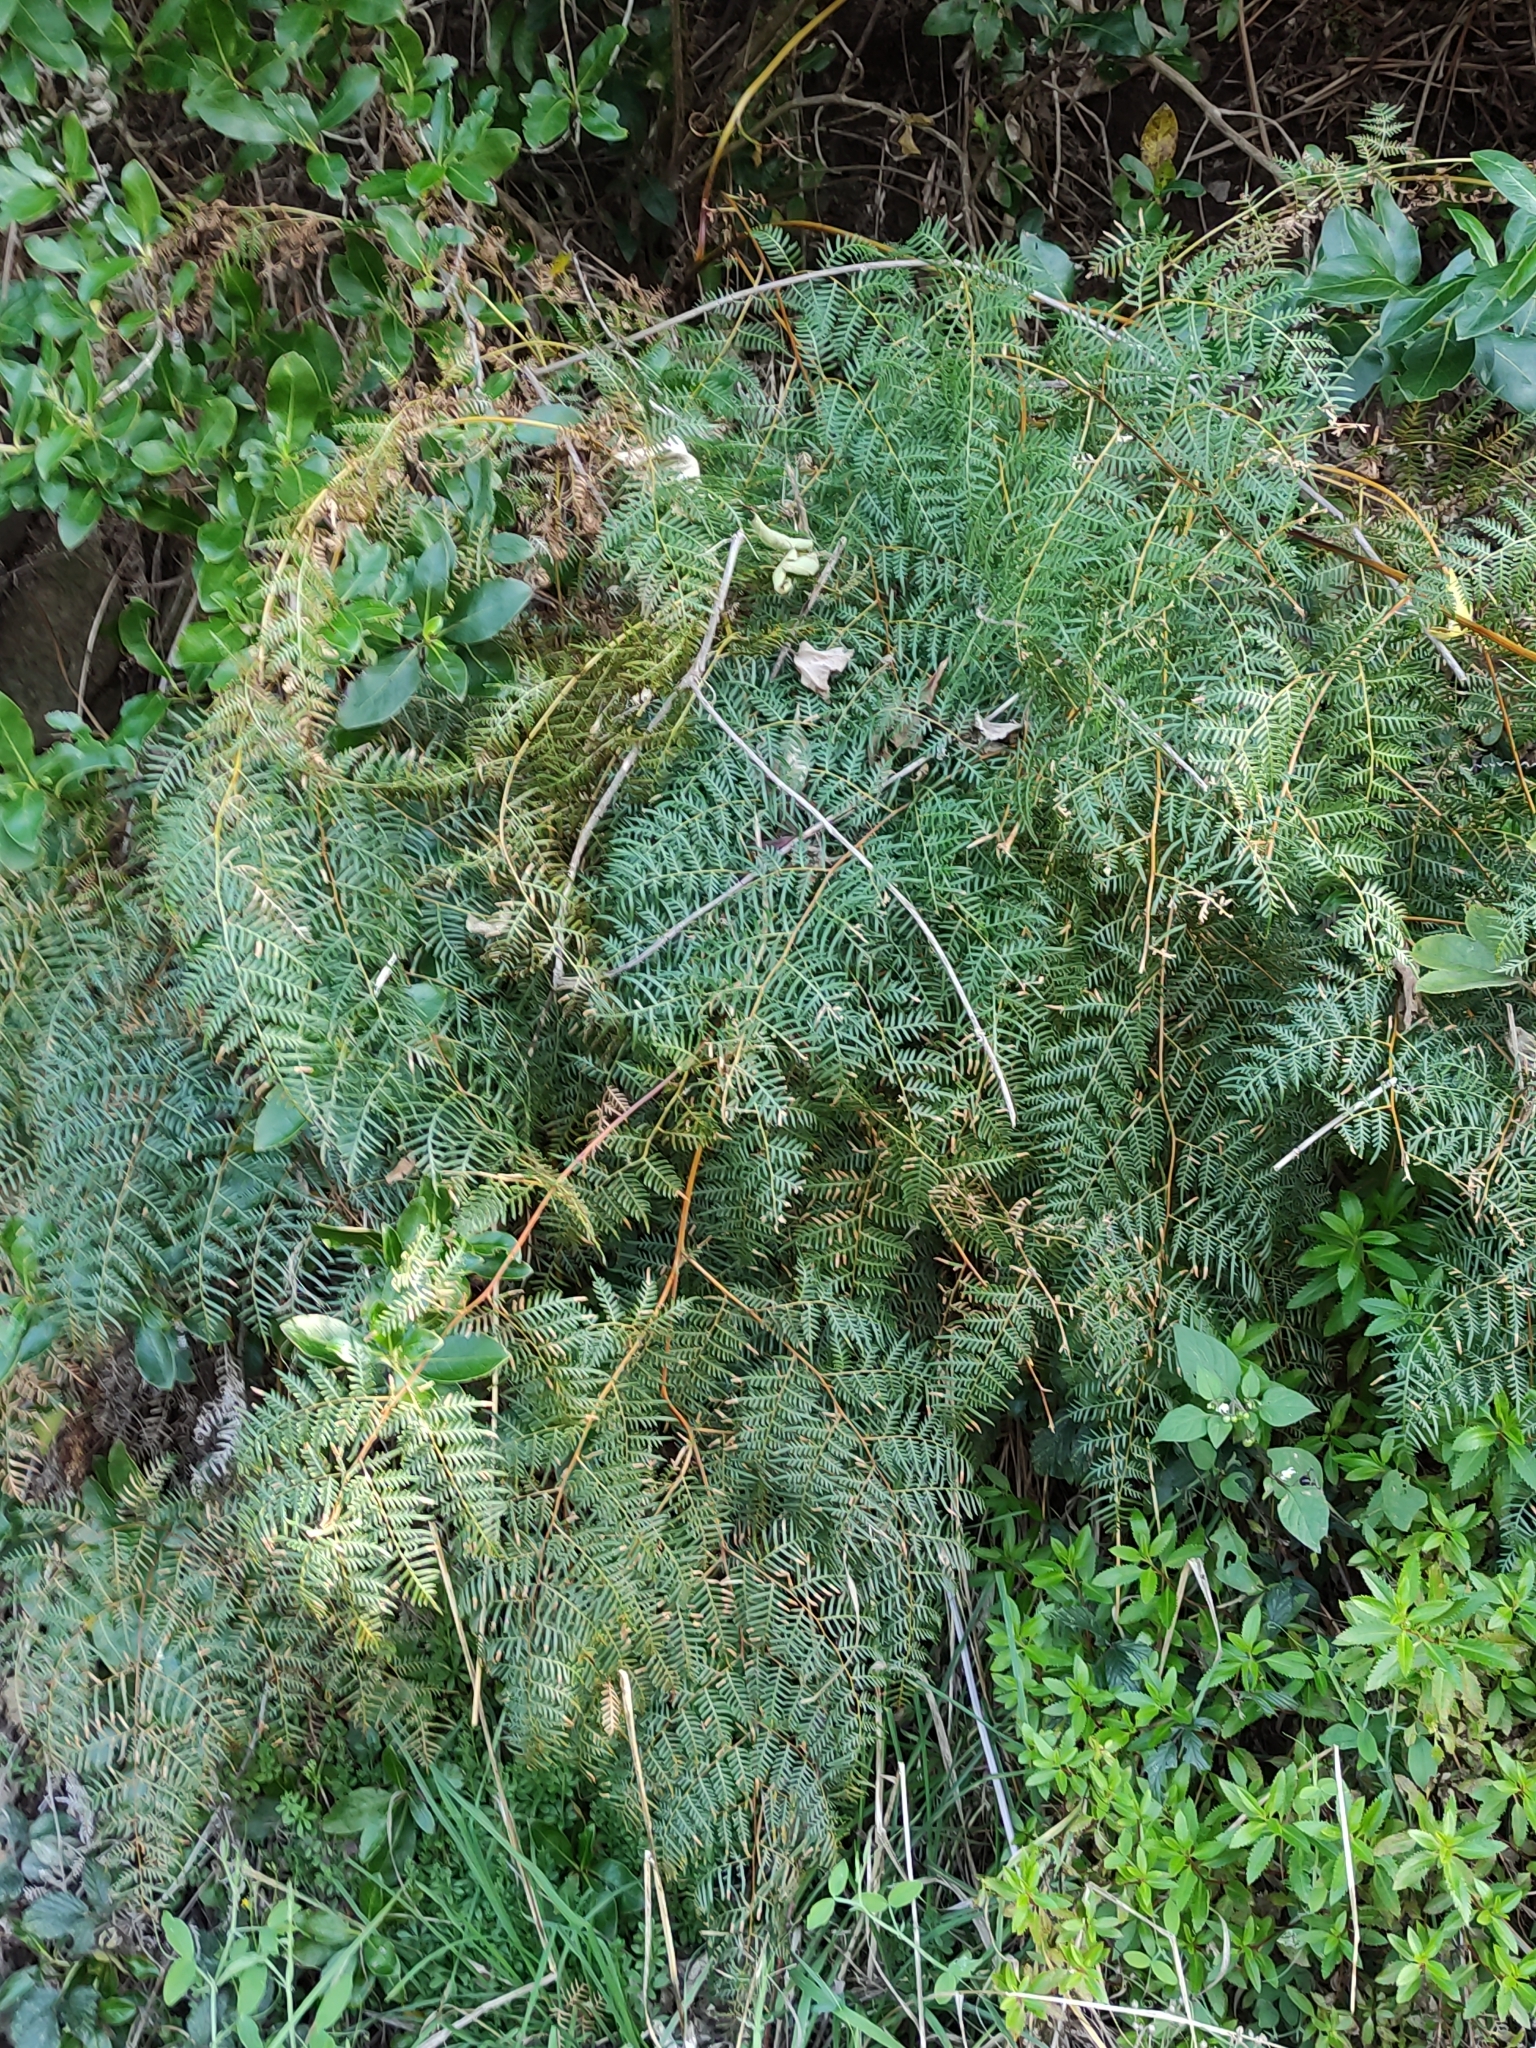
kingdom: Plantae
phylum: Tracheophyta
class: Polypodiopsida
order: Polypodiales
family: Dennstaedtiaceae
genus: Pteridium
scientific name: Pteridium esculentum
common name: Bracken fern
